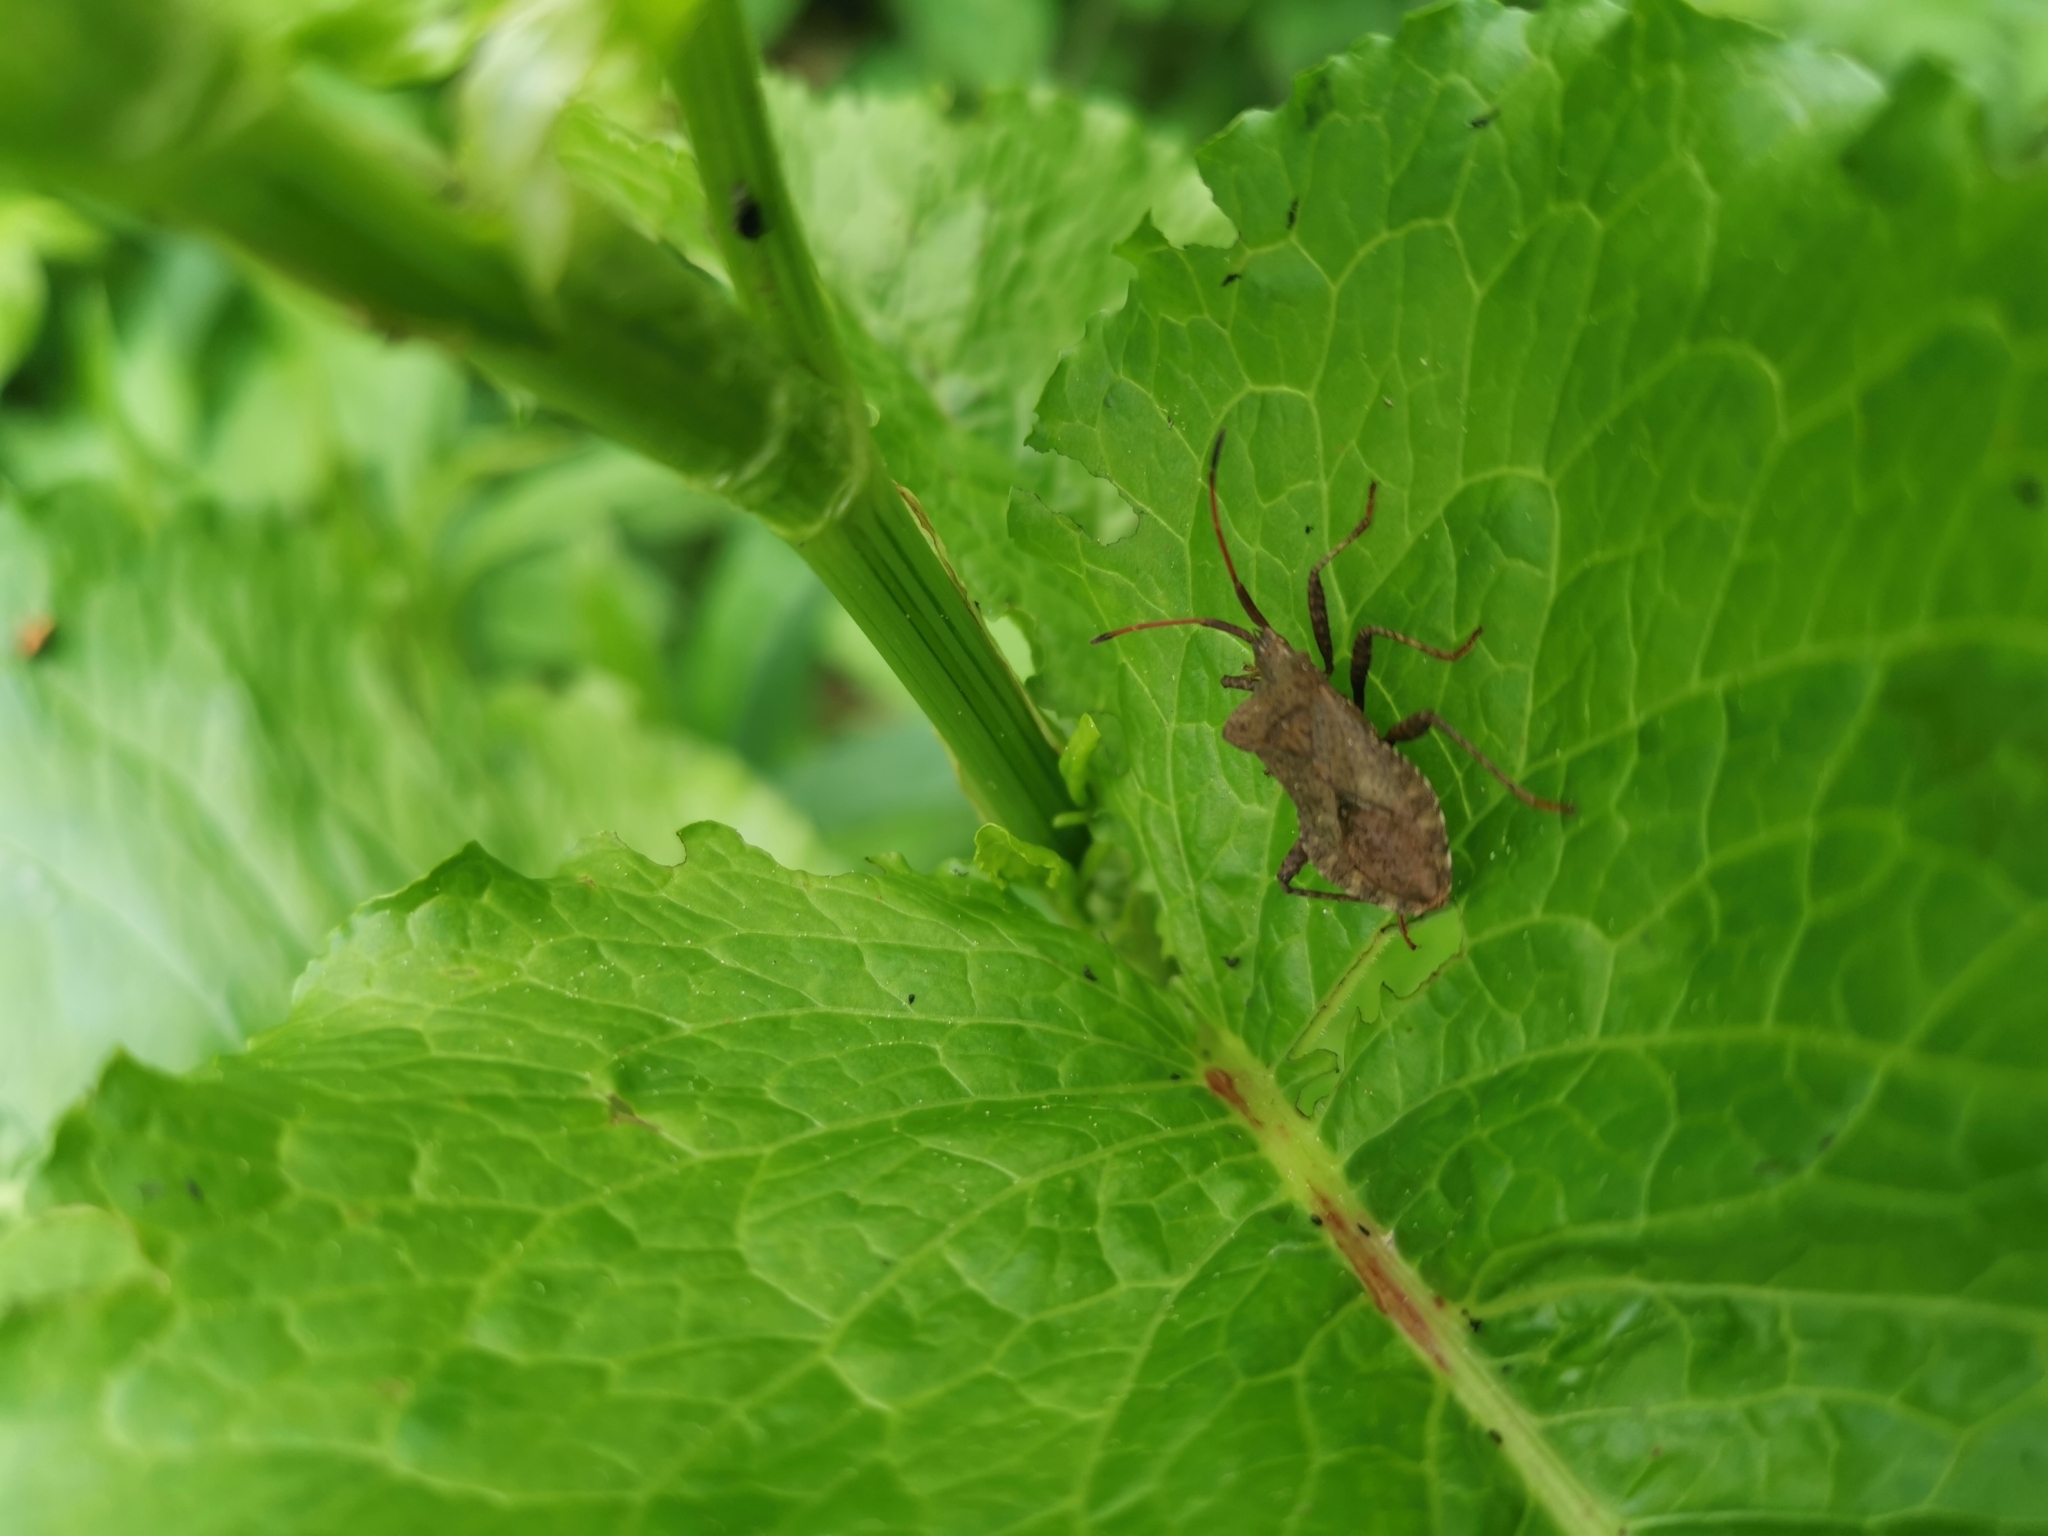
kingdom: Animalia
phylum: Arthropoda
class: Insecta
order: Hemiptera
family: Coreidae
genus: Coreus
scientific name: Coreus marginatus
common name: Dock bug
